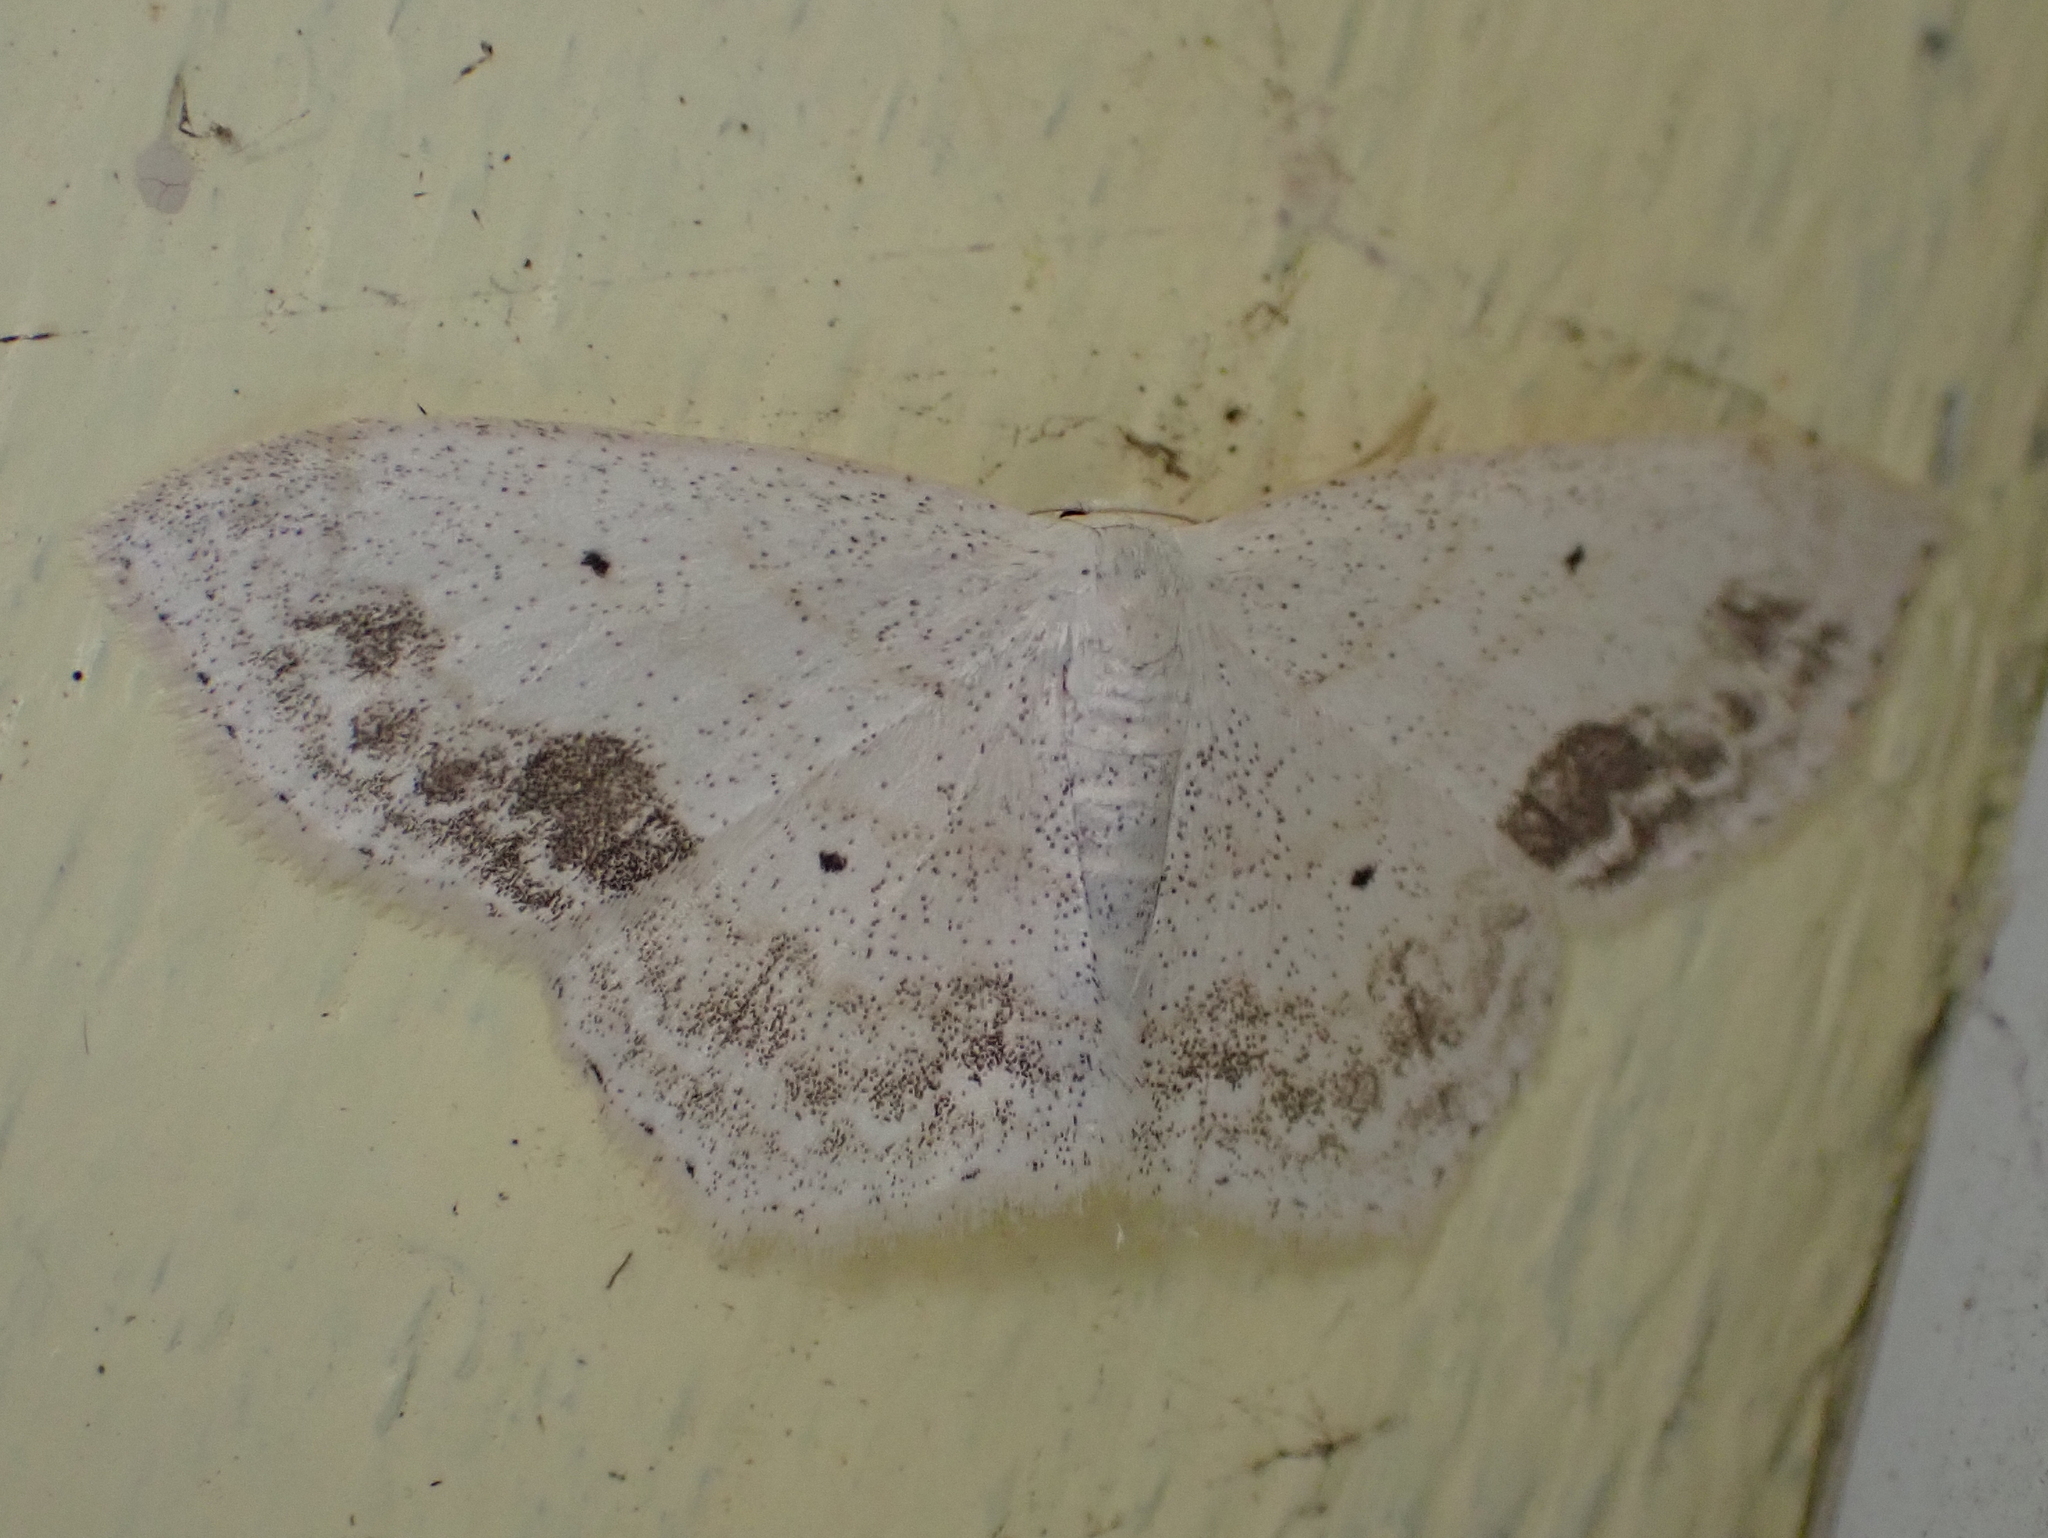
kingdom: Animalia
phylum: Arthropoda
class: Insecta
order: Lepidoptera
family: Geometridae
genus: Scopula
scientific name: Scopula limboundata
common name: Large lace border
